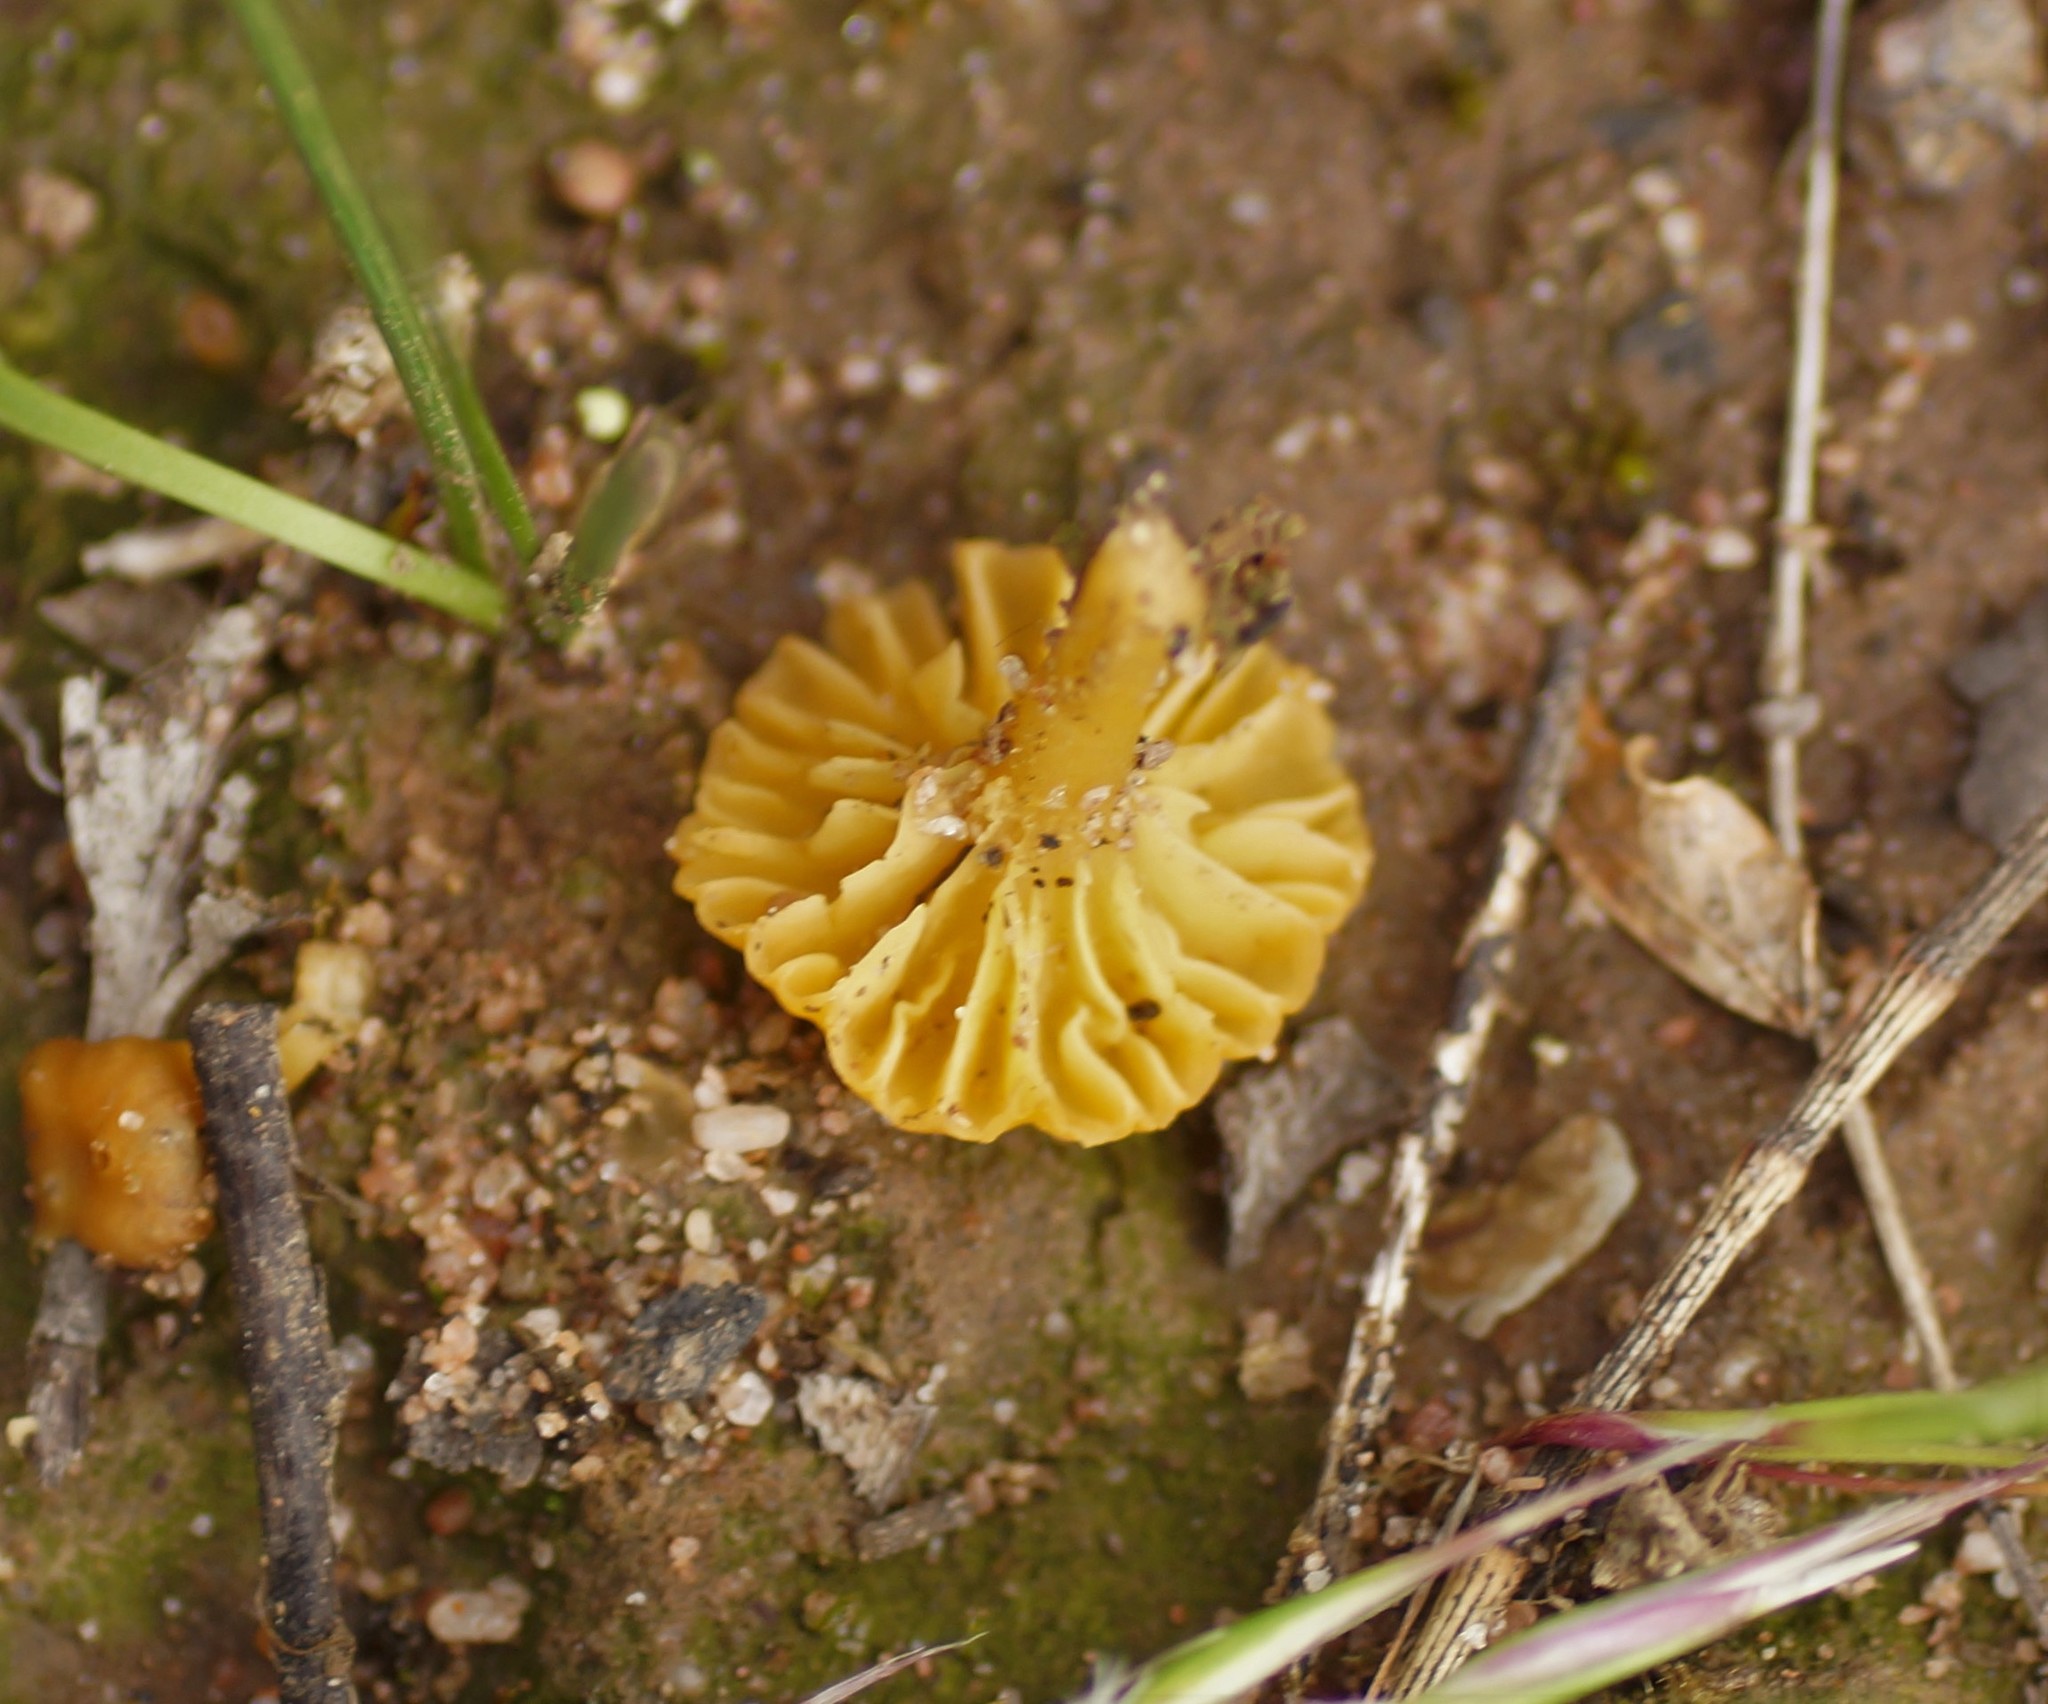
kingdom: Fungi
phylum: Basidiomycota
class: Agaricomycetes
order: Agaricales
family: Hygrophoraceae
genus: Lichenomphalia
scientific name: Lichenomphalia chromacea
